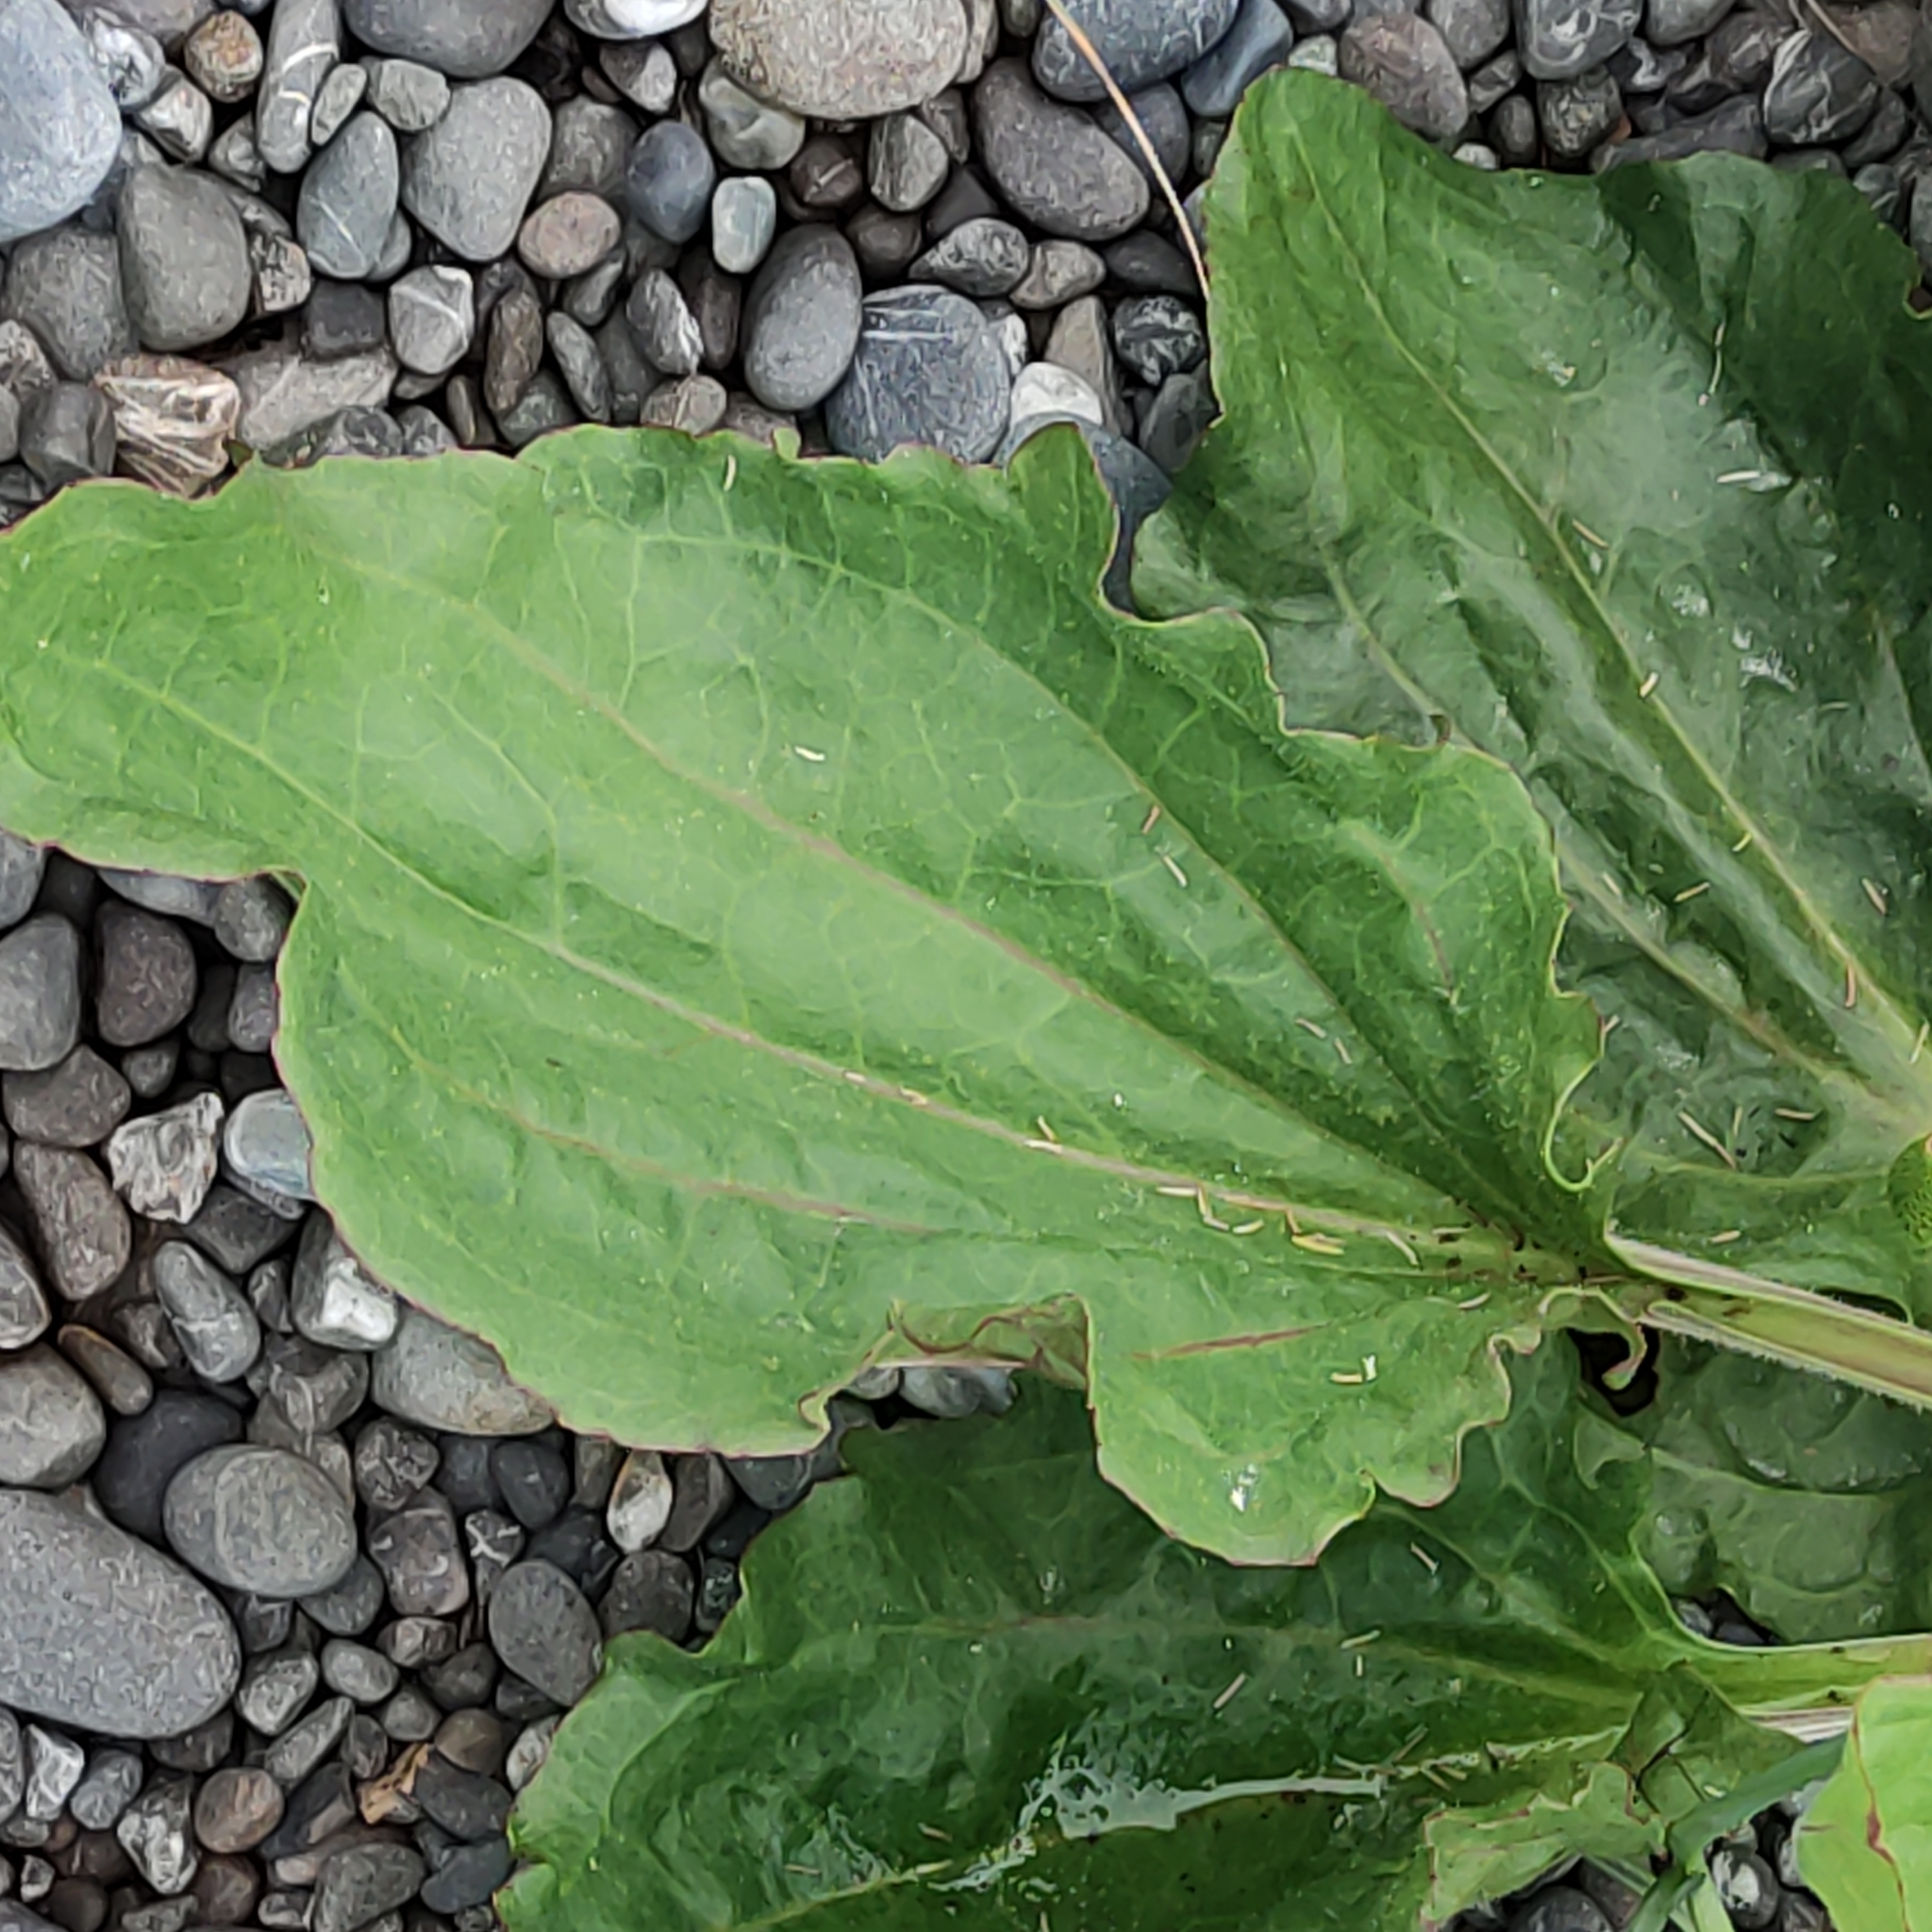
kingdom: Plantae
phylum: Tracheophyta
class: Magnoliopsida
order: Lamiales
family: Plantaginaceae
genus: Plantago
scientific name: Plantago major
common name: Common plantain
